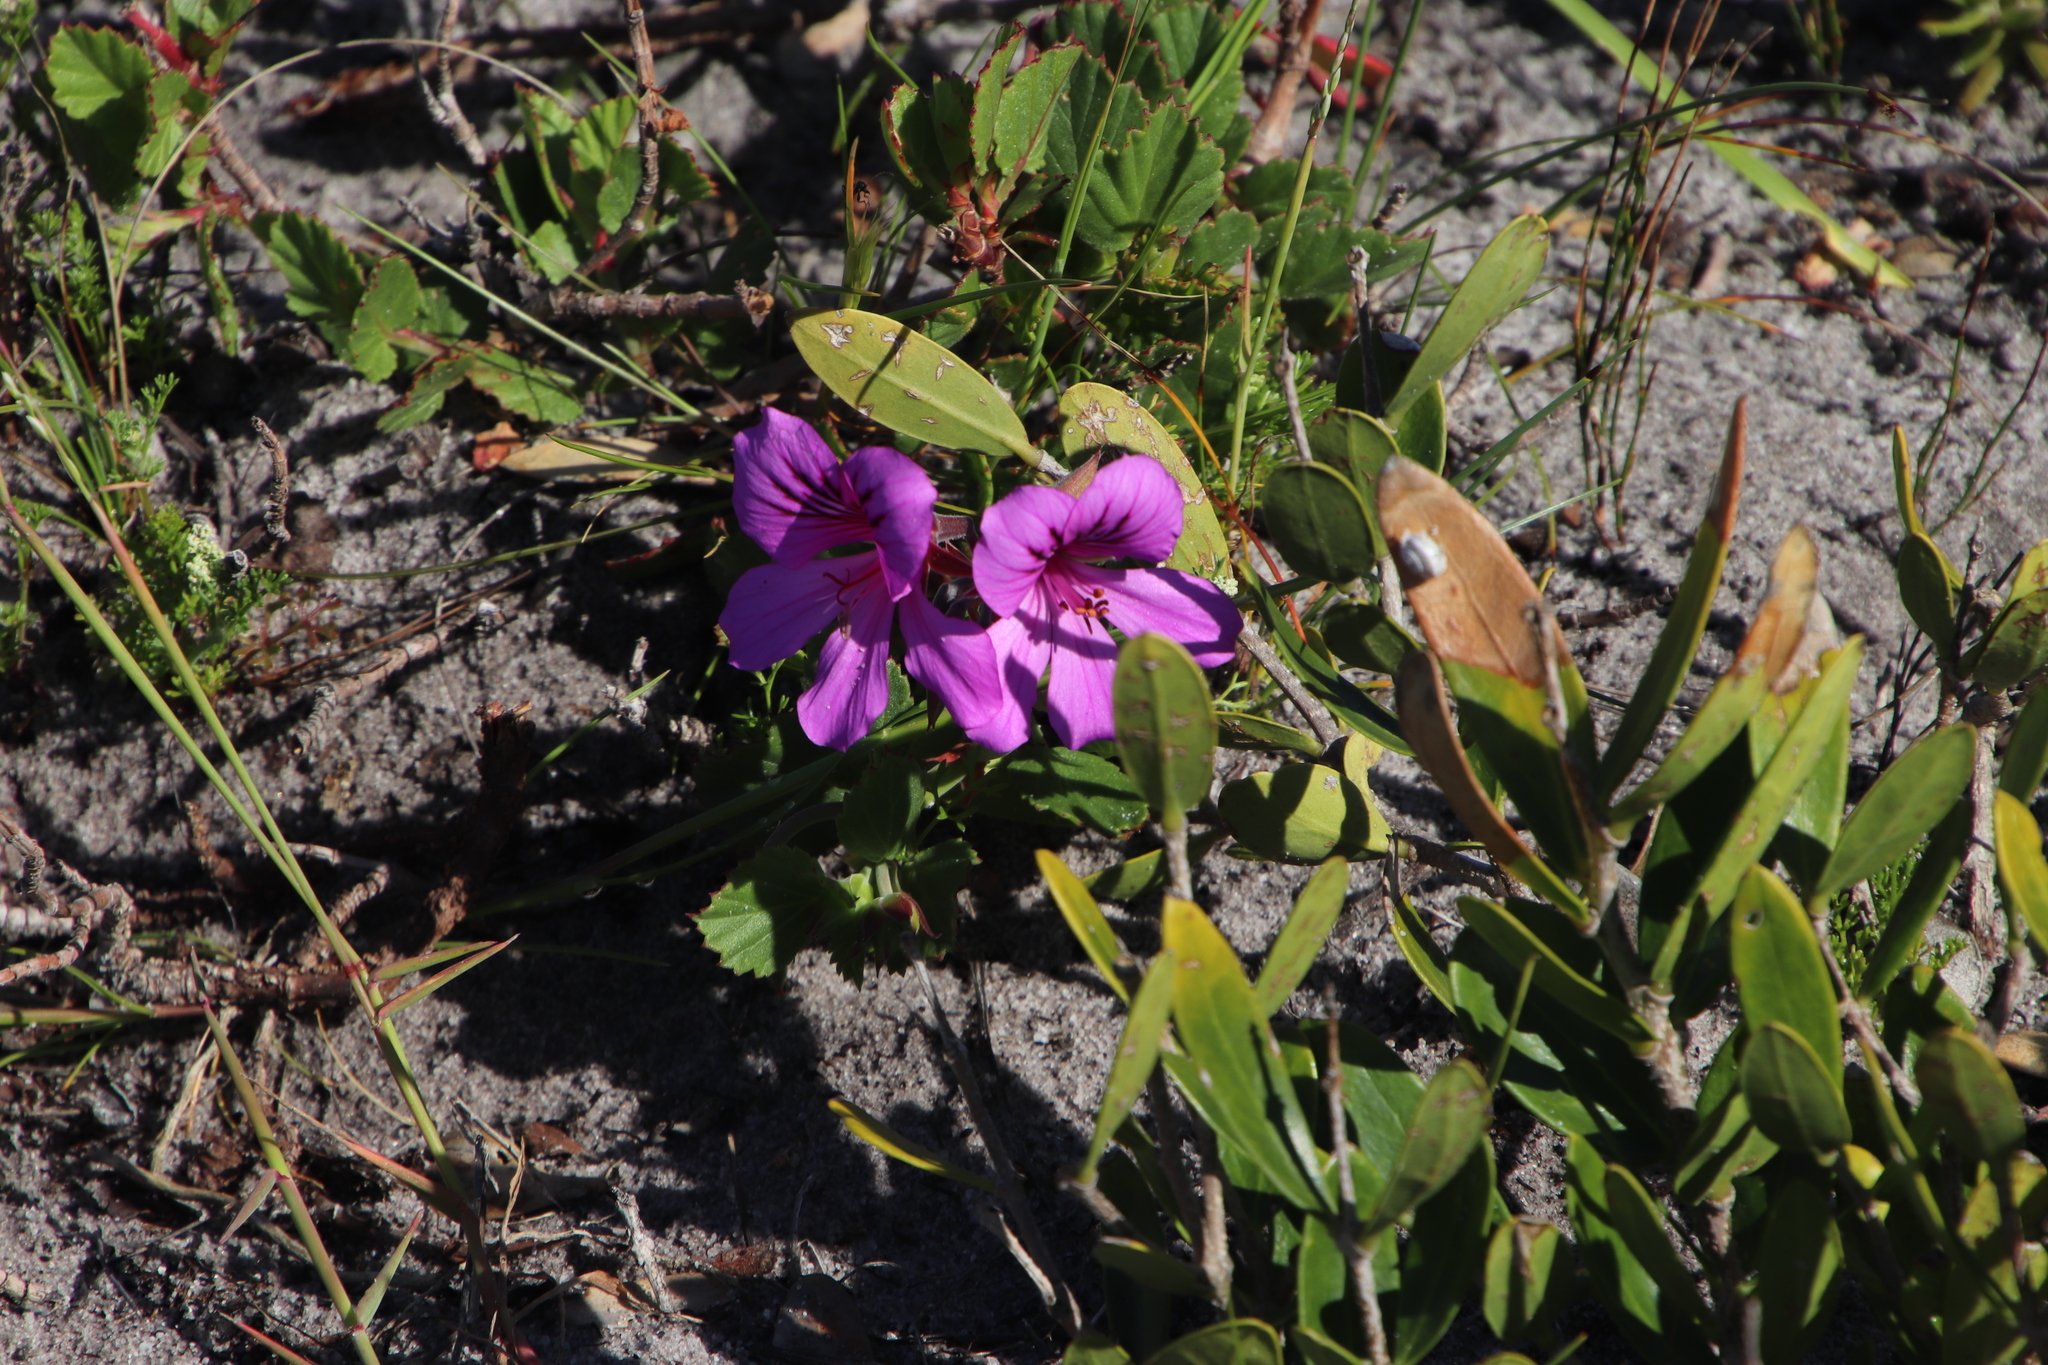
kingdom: Plantae
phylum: Tracheophyta
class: Magnoliopsida
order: Geraniales
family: Geraniaceae
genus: Pelargonium
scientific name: Pelargonium betulinum
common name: Birch-leaf pelargonium
